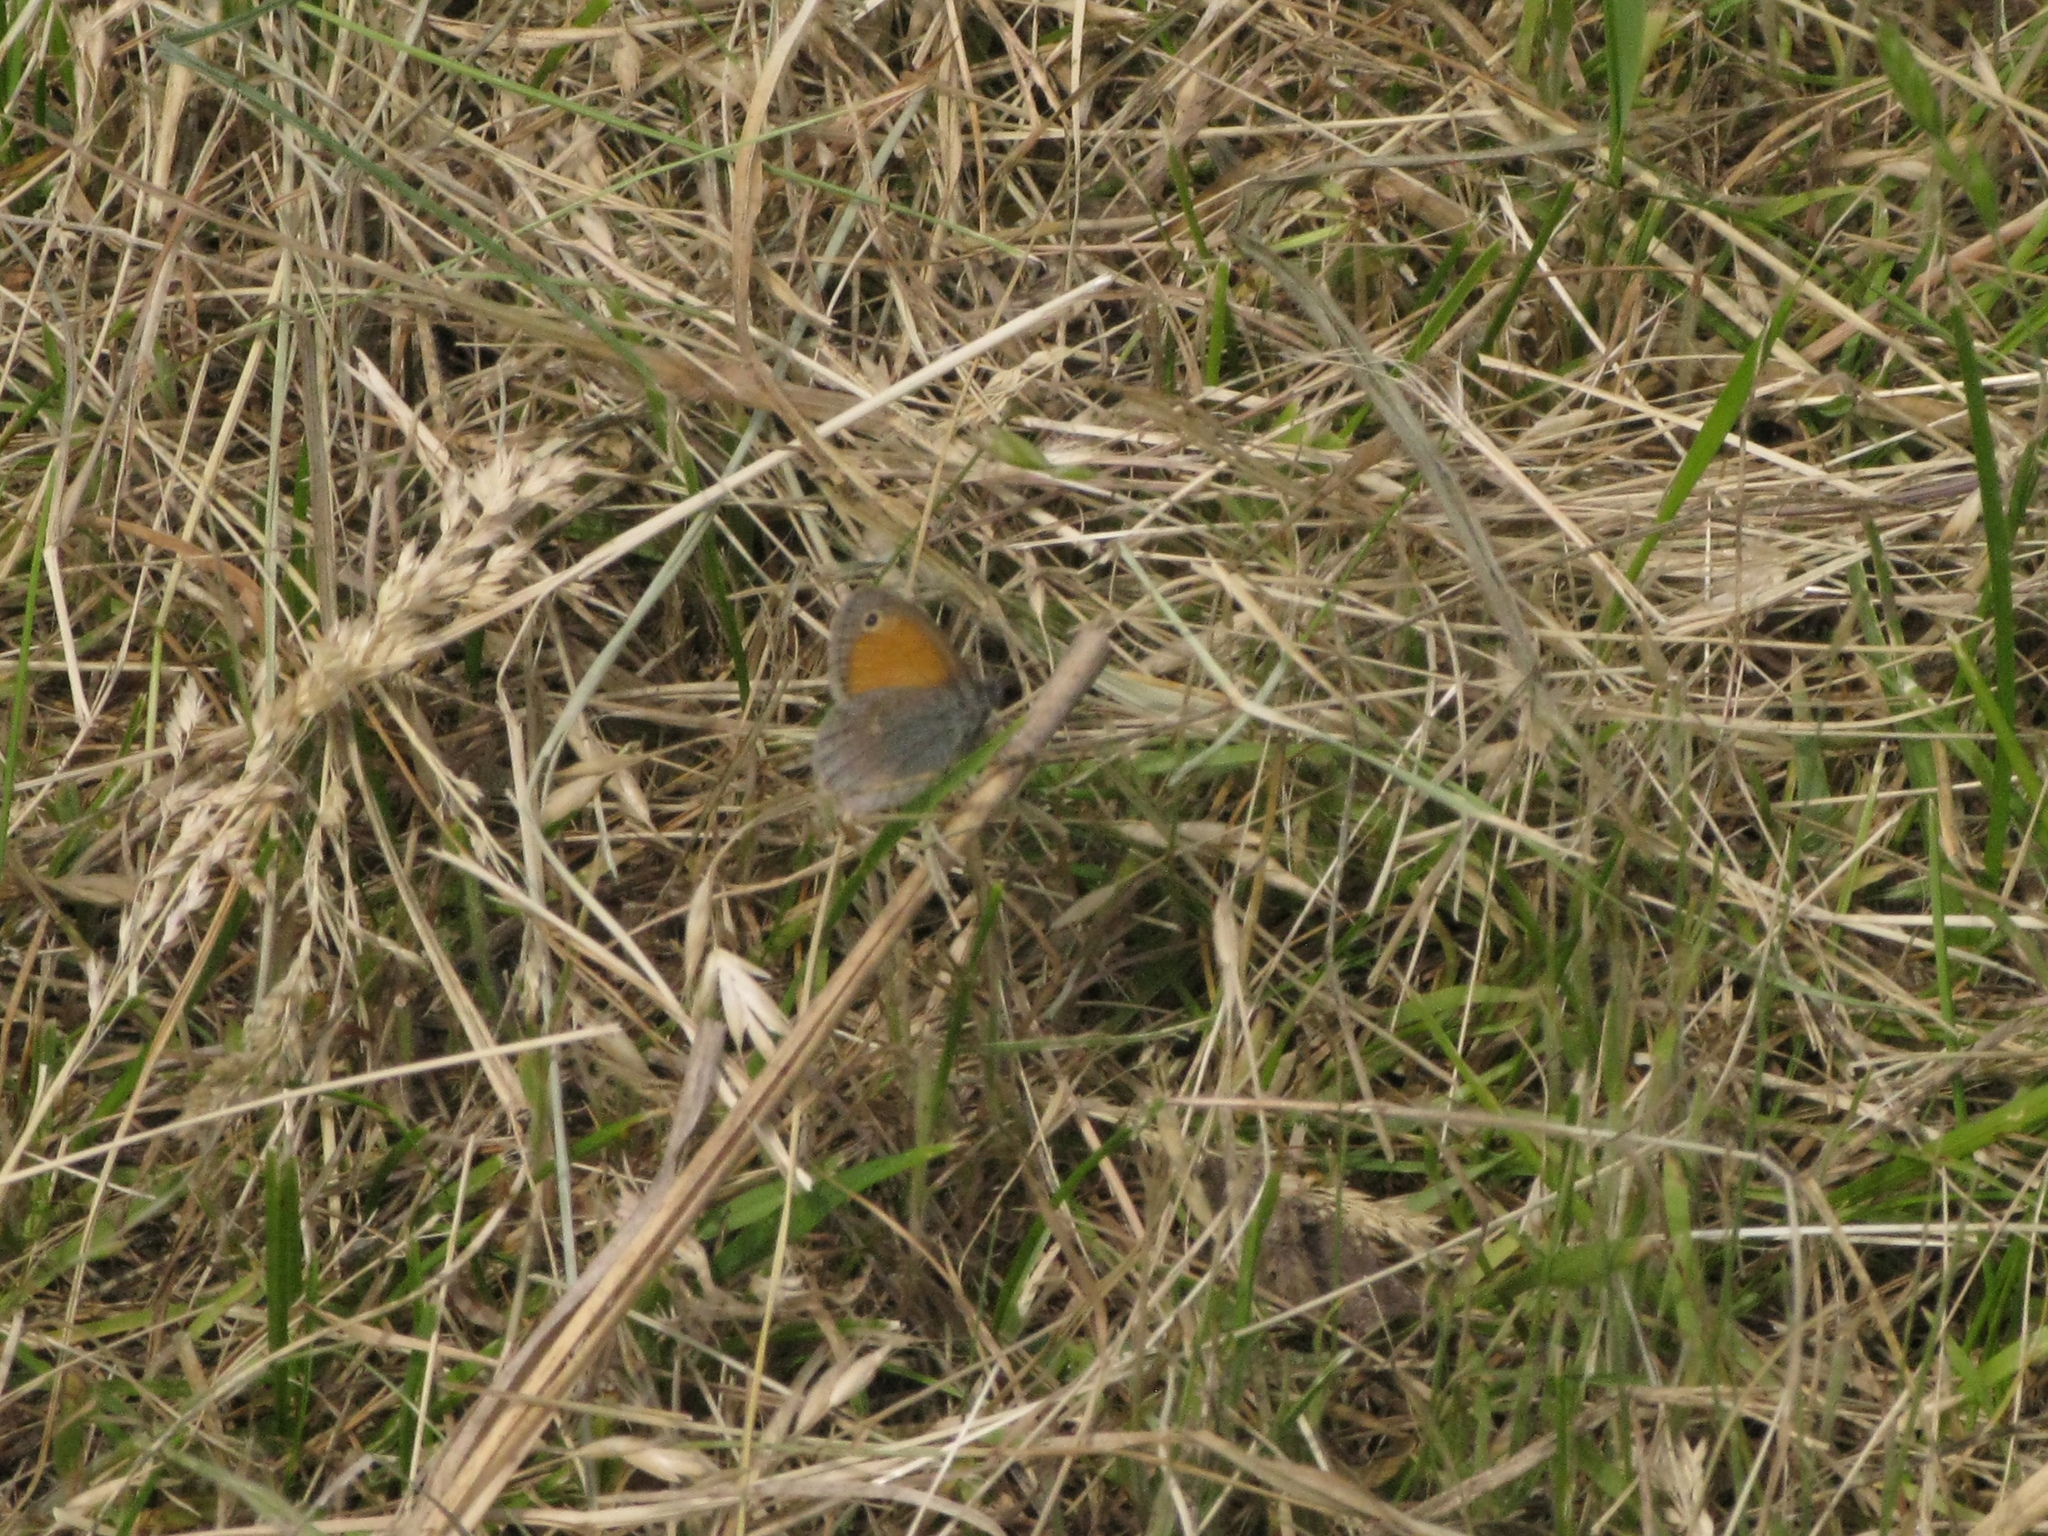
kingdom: Animalia
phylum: Arthropoda
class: Insecta
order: Lepidoptera
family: Nymphalidae
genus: Coenonympha
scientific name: Coenonympha pamphilus
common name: Small heath
